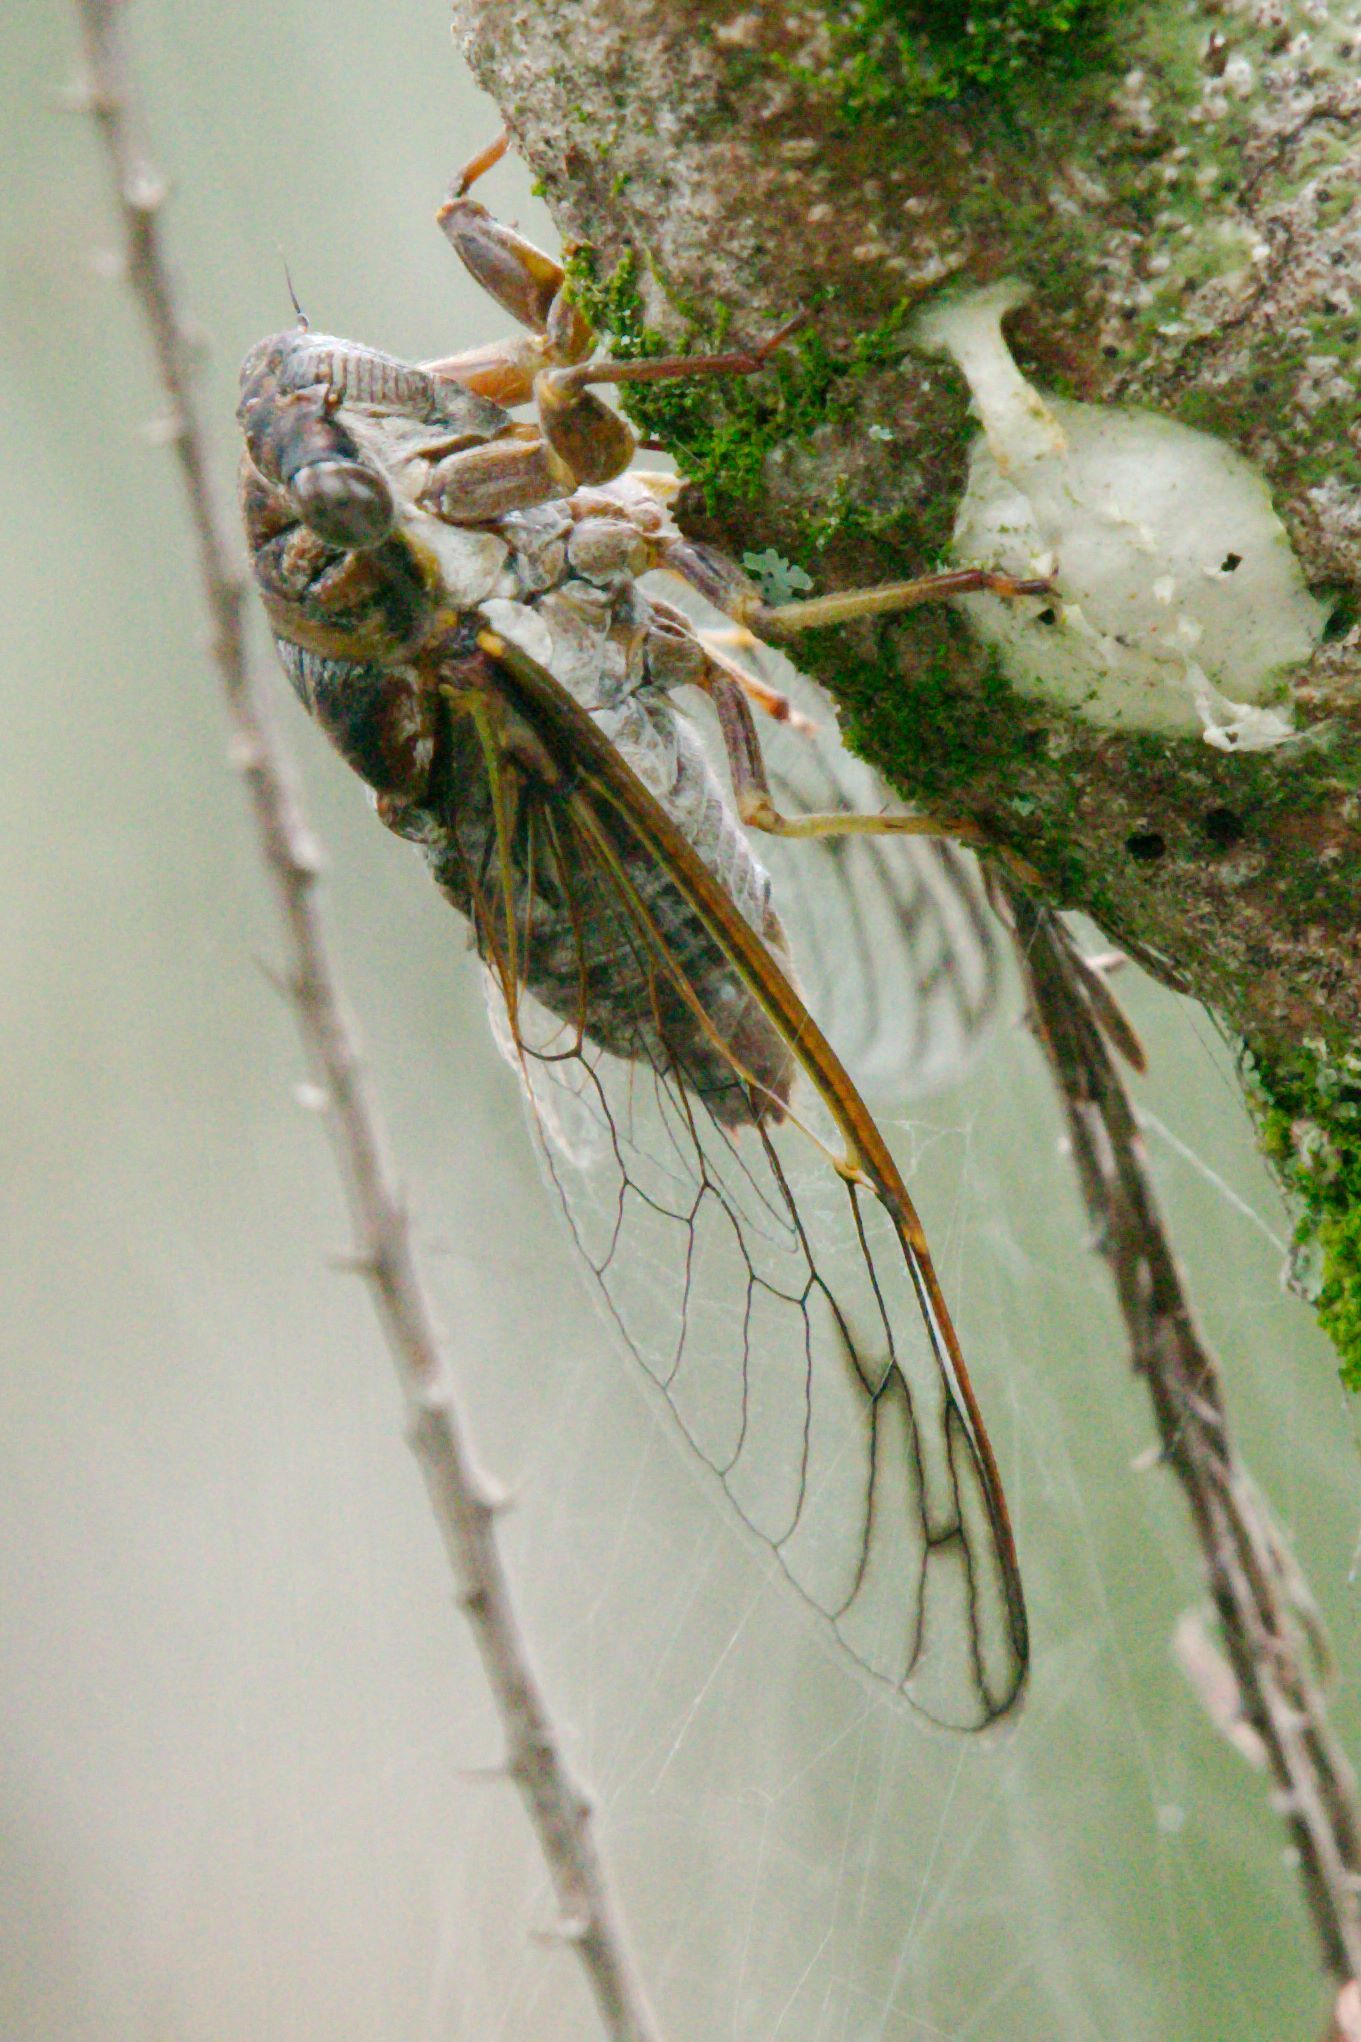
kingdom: Animalia
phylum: Arthropoda
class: Insecta
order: Hemiptera
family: Cicadidae
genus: Diceroprocta
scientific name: Diceroprocta olympusa
